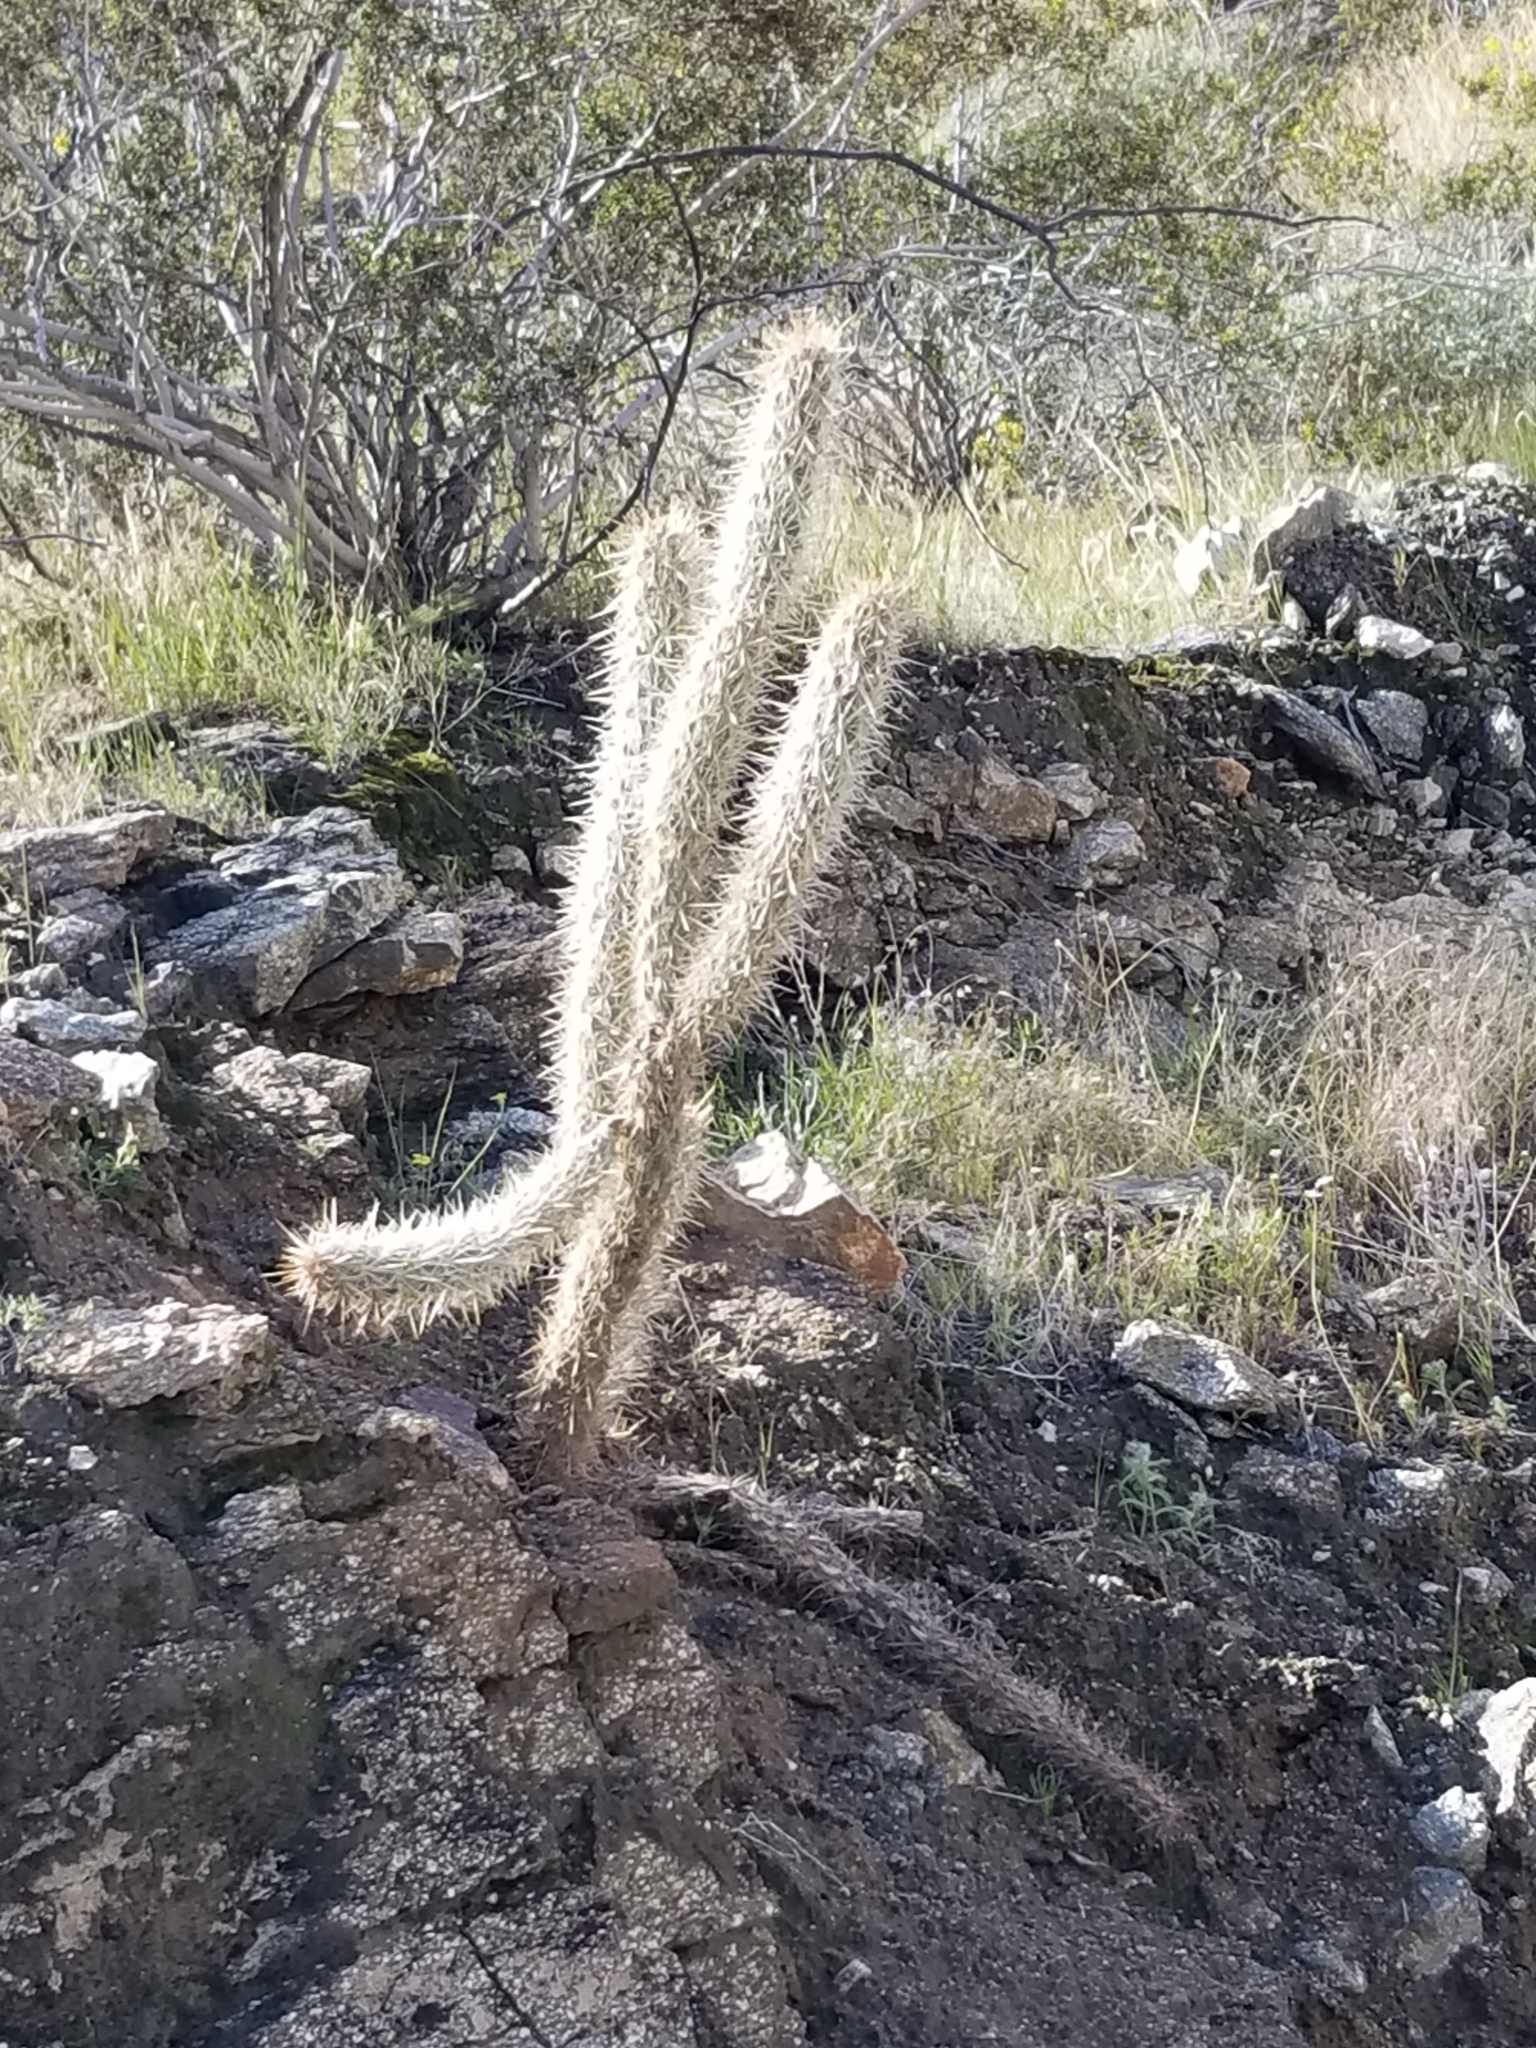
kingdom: Plantae
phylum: Tracheophyta
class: Magnoliopsida
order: Caryophyllales
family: Cactaceae
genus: Cylindropuntia
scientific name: Cylindropuntia ganderi
